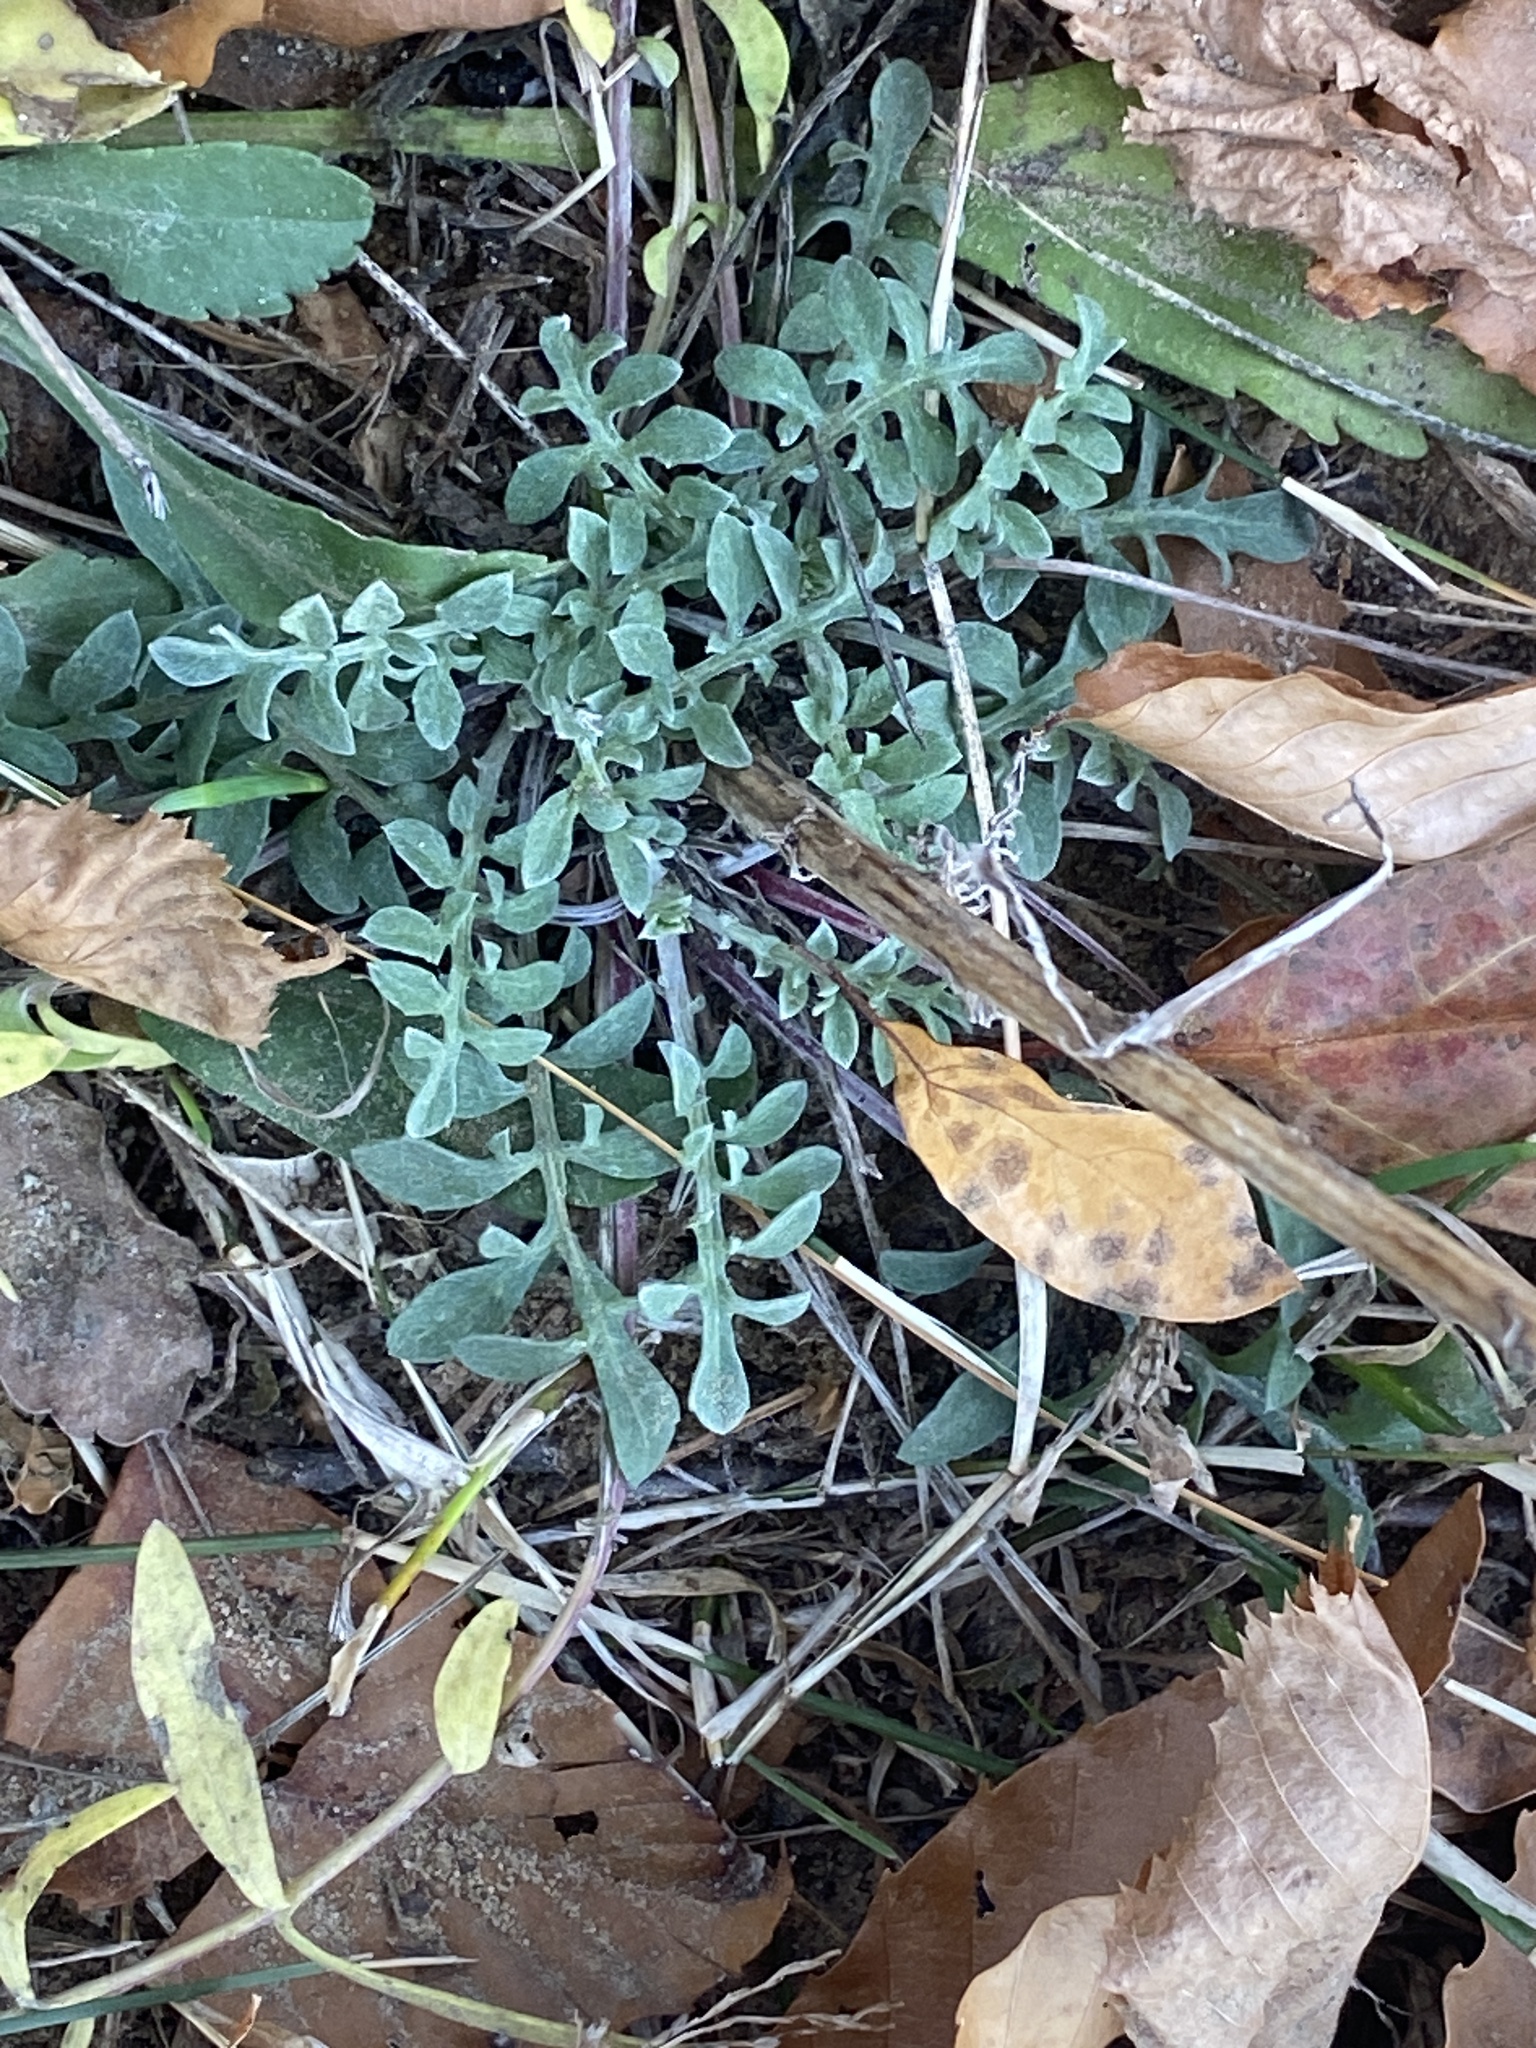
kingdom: Plantae
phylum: Tracheophyta
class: Magnoliopsida
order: Asterales
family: Asteraceae
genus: Centaurea
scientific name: Centaurea stoebe
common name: Spotted knapweed
